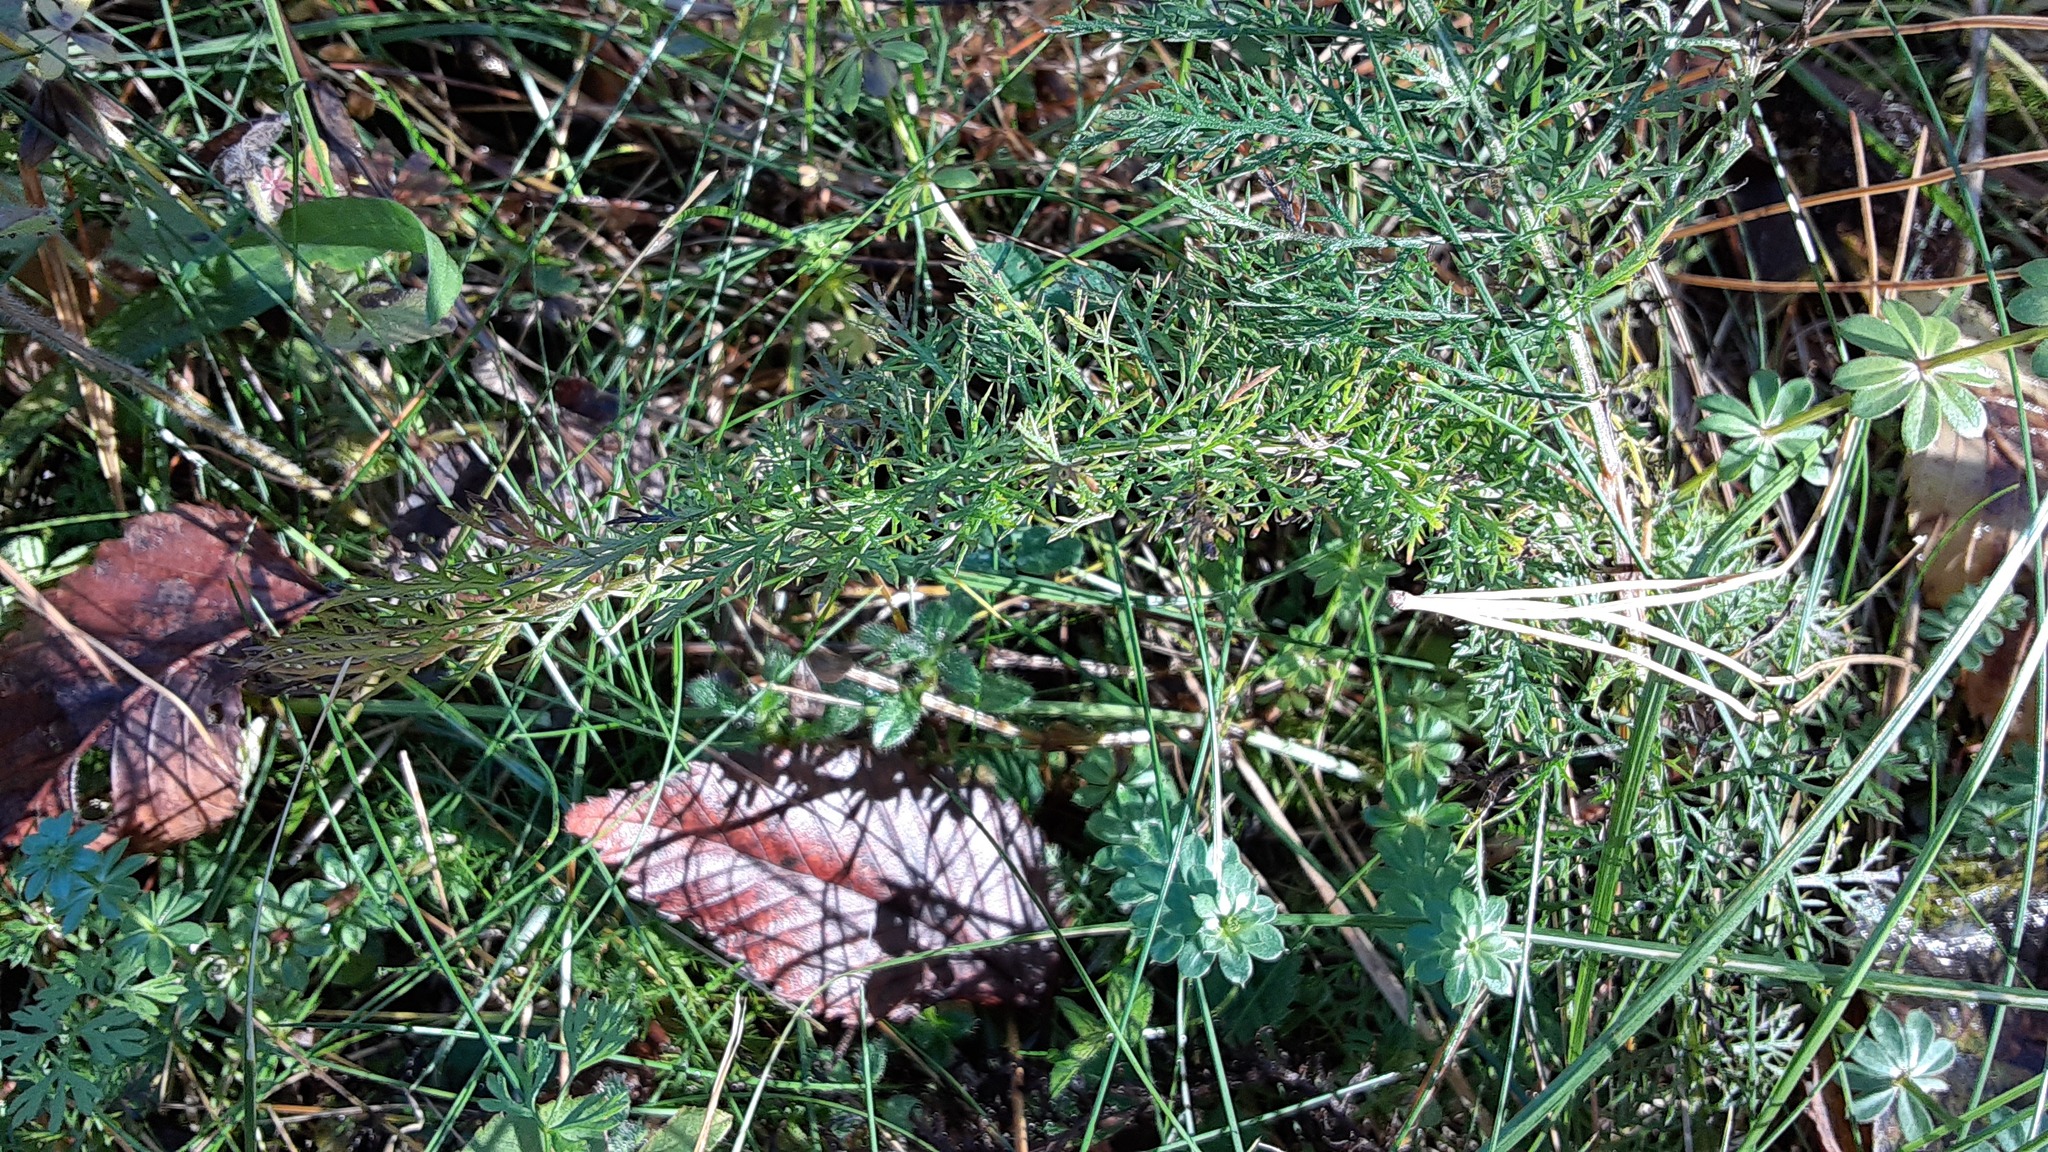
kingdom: Plantae
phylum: Tracheophyta
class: Magnoliopsida
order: Asterales
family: Asteraceae
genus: Achillea
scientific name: Achillea millefolium
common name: Yarrow
